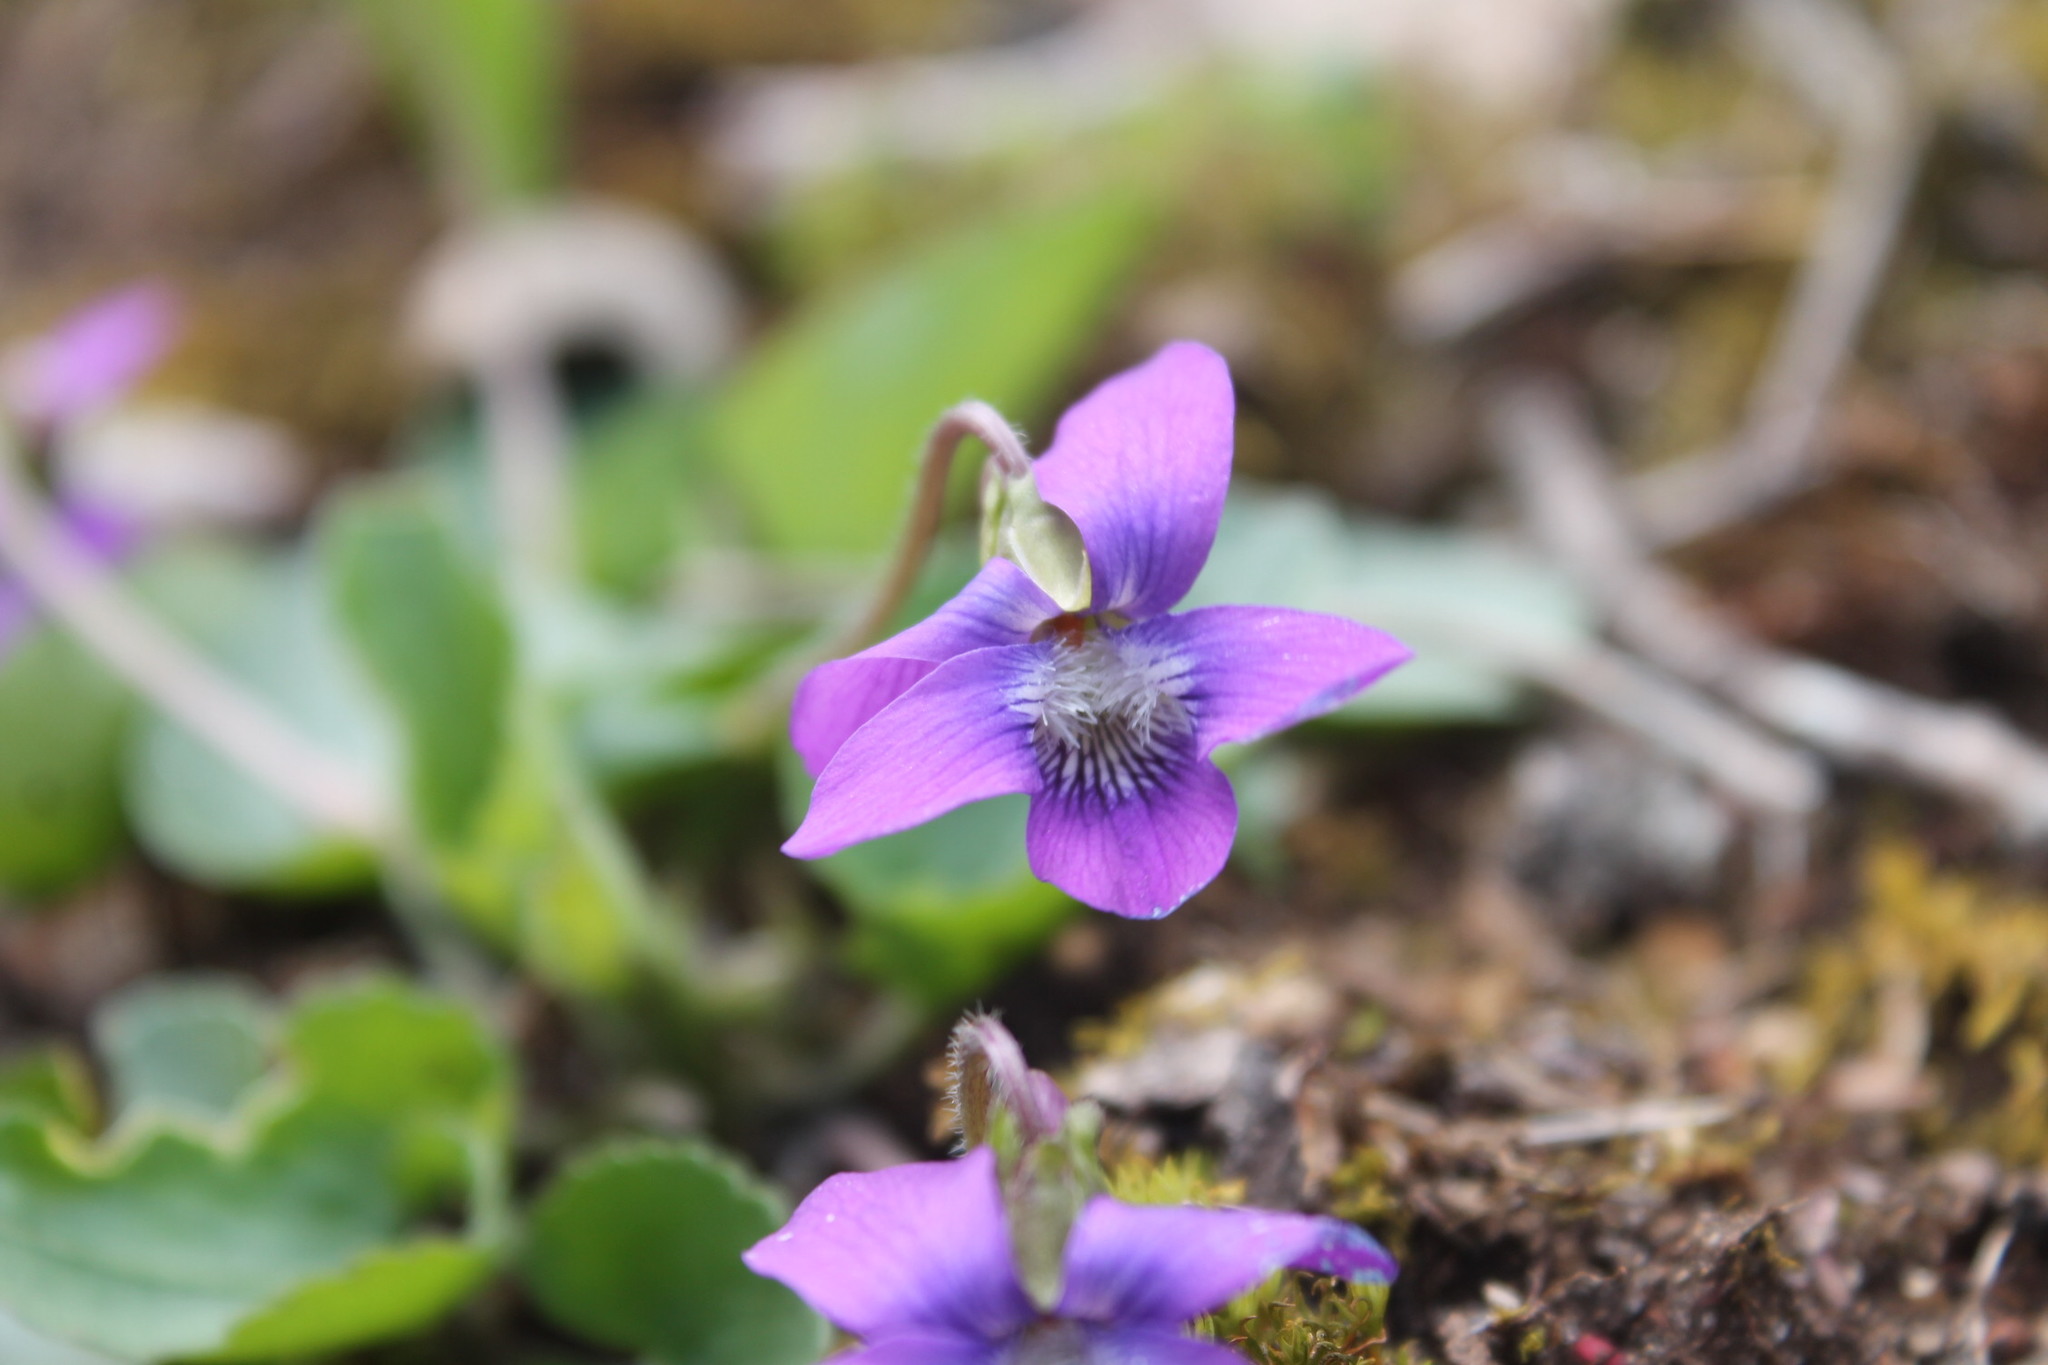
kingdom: Plantae
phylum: Tracheophyta
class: Magnoliopsida
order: Malpighiales
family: Violaceae
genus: Viola
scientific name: Viola sororia
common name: Dooryard violet
